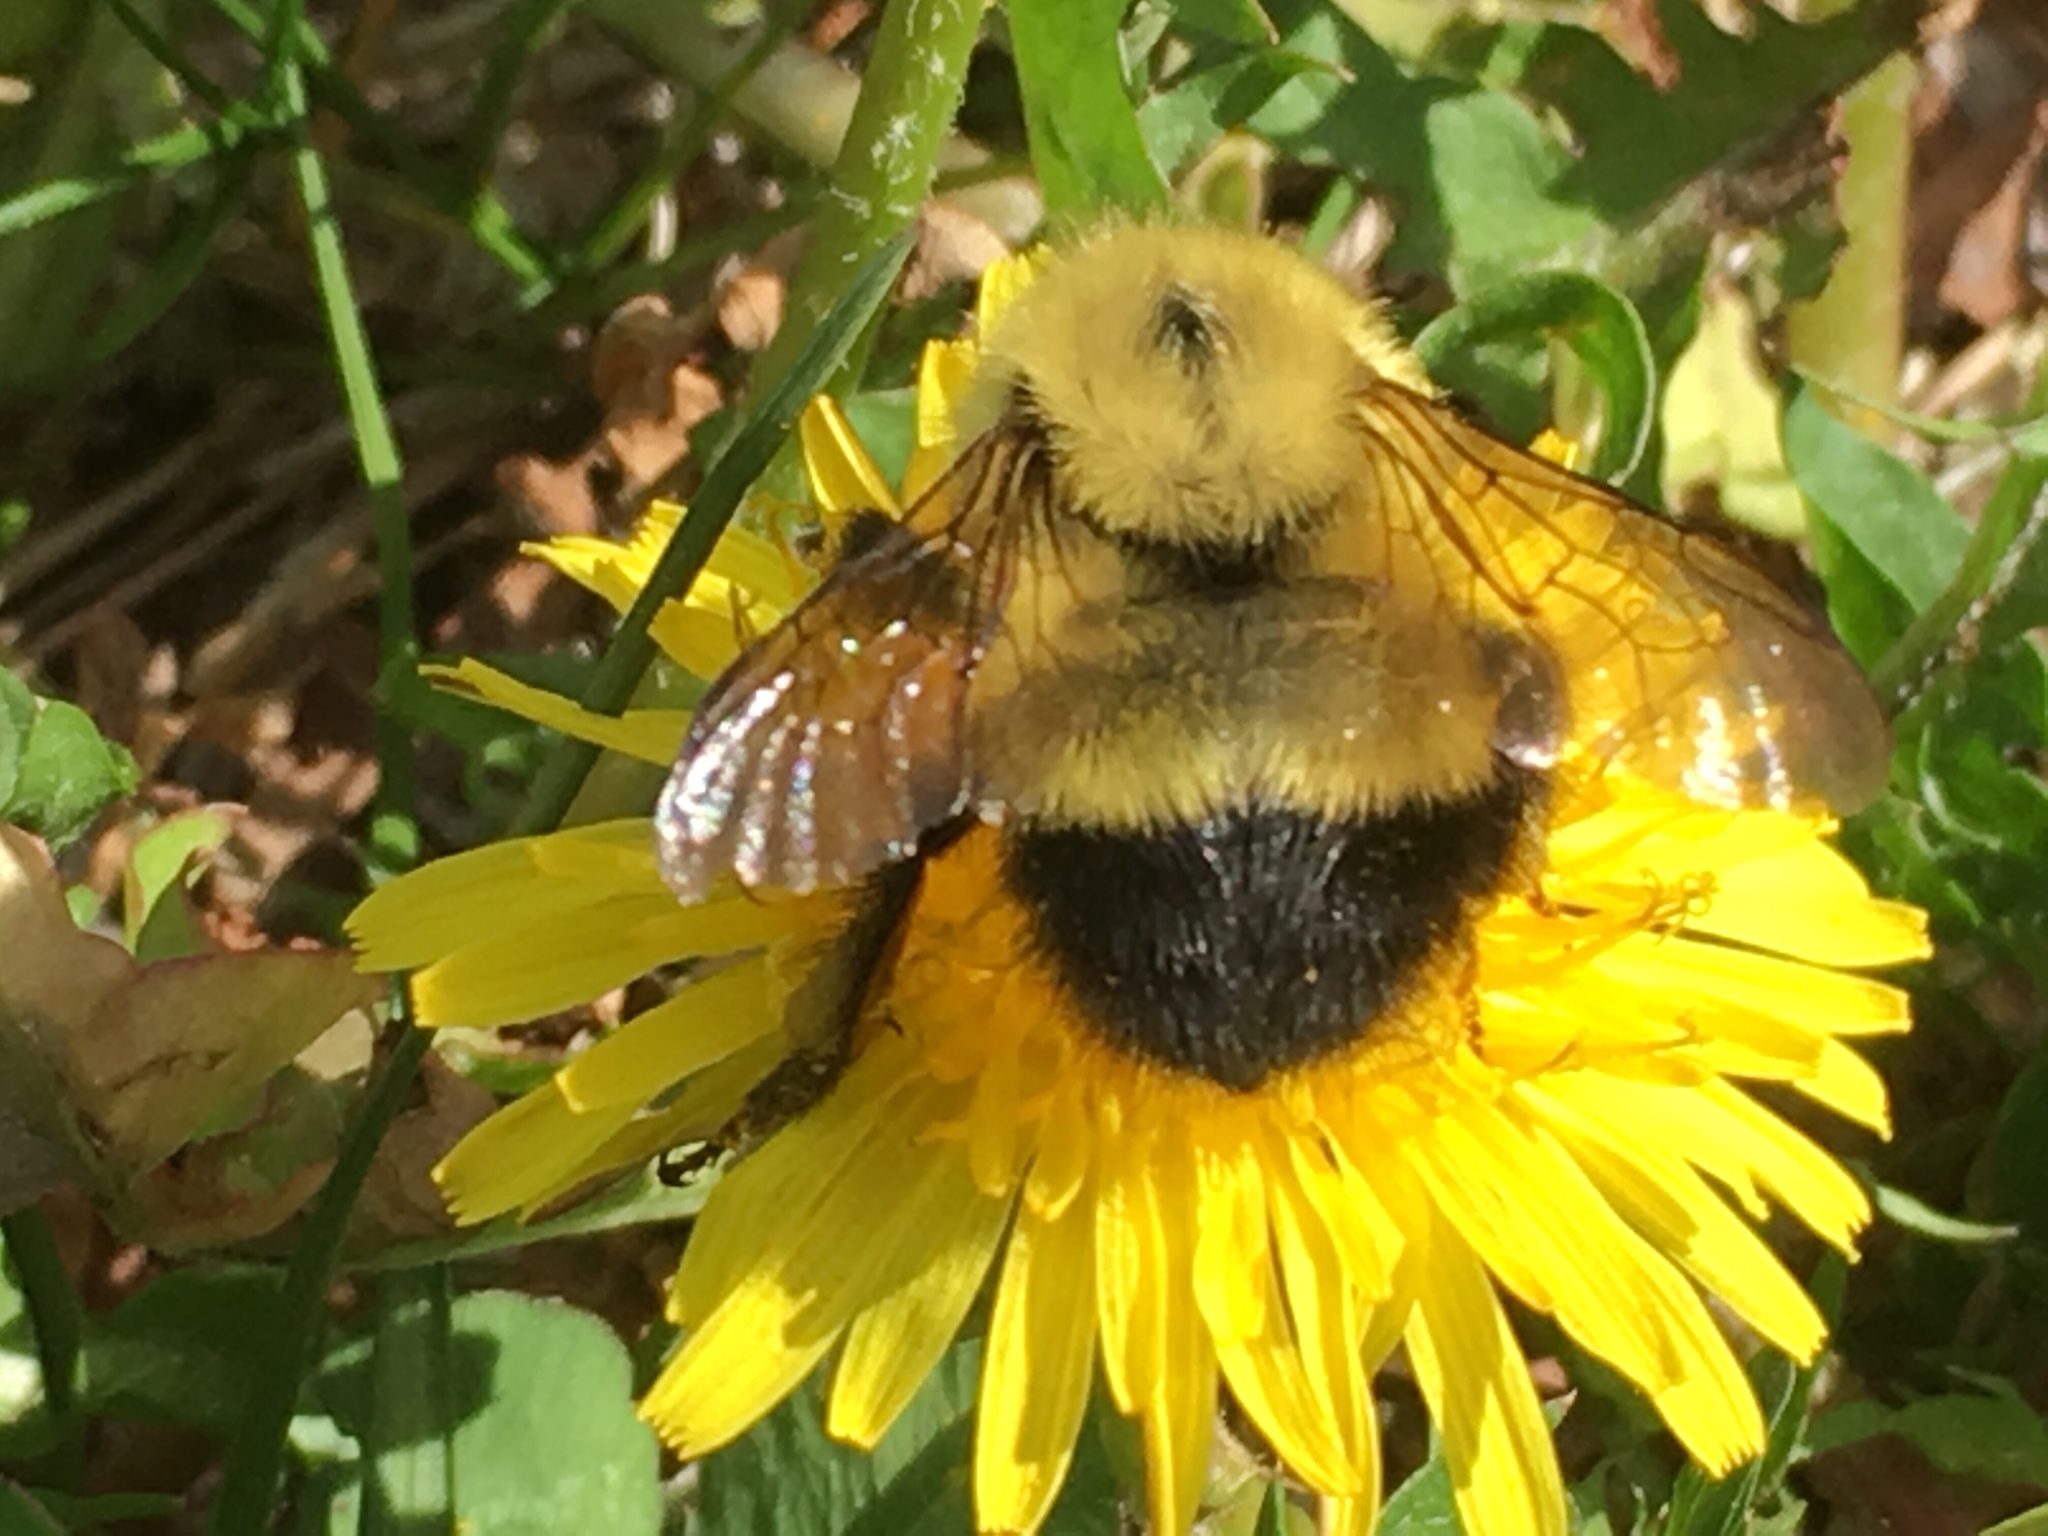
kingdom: Animalia
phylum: Arthropoda
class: Insecta
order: Hymenoptera
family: Apidae
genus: Pyrobombus
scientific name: Pyrobombus
